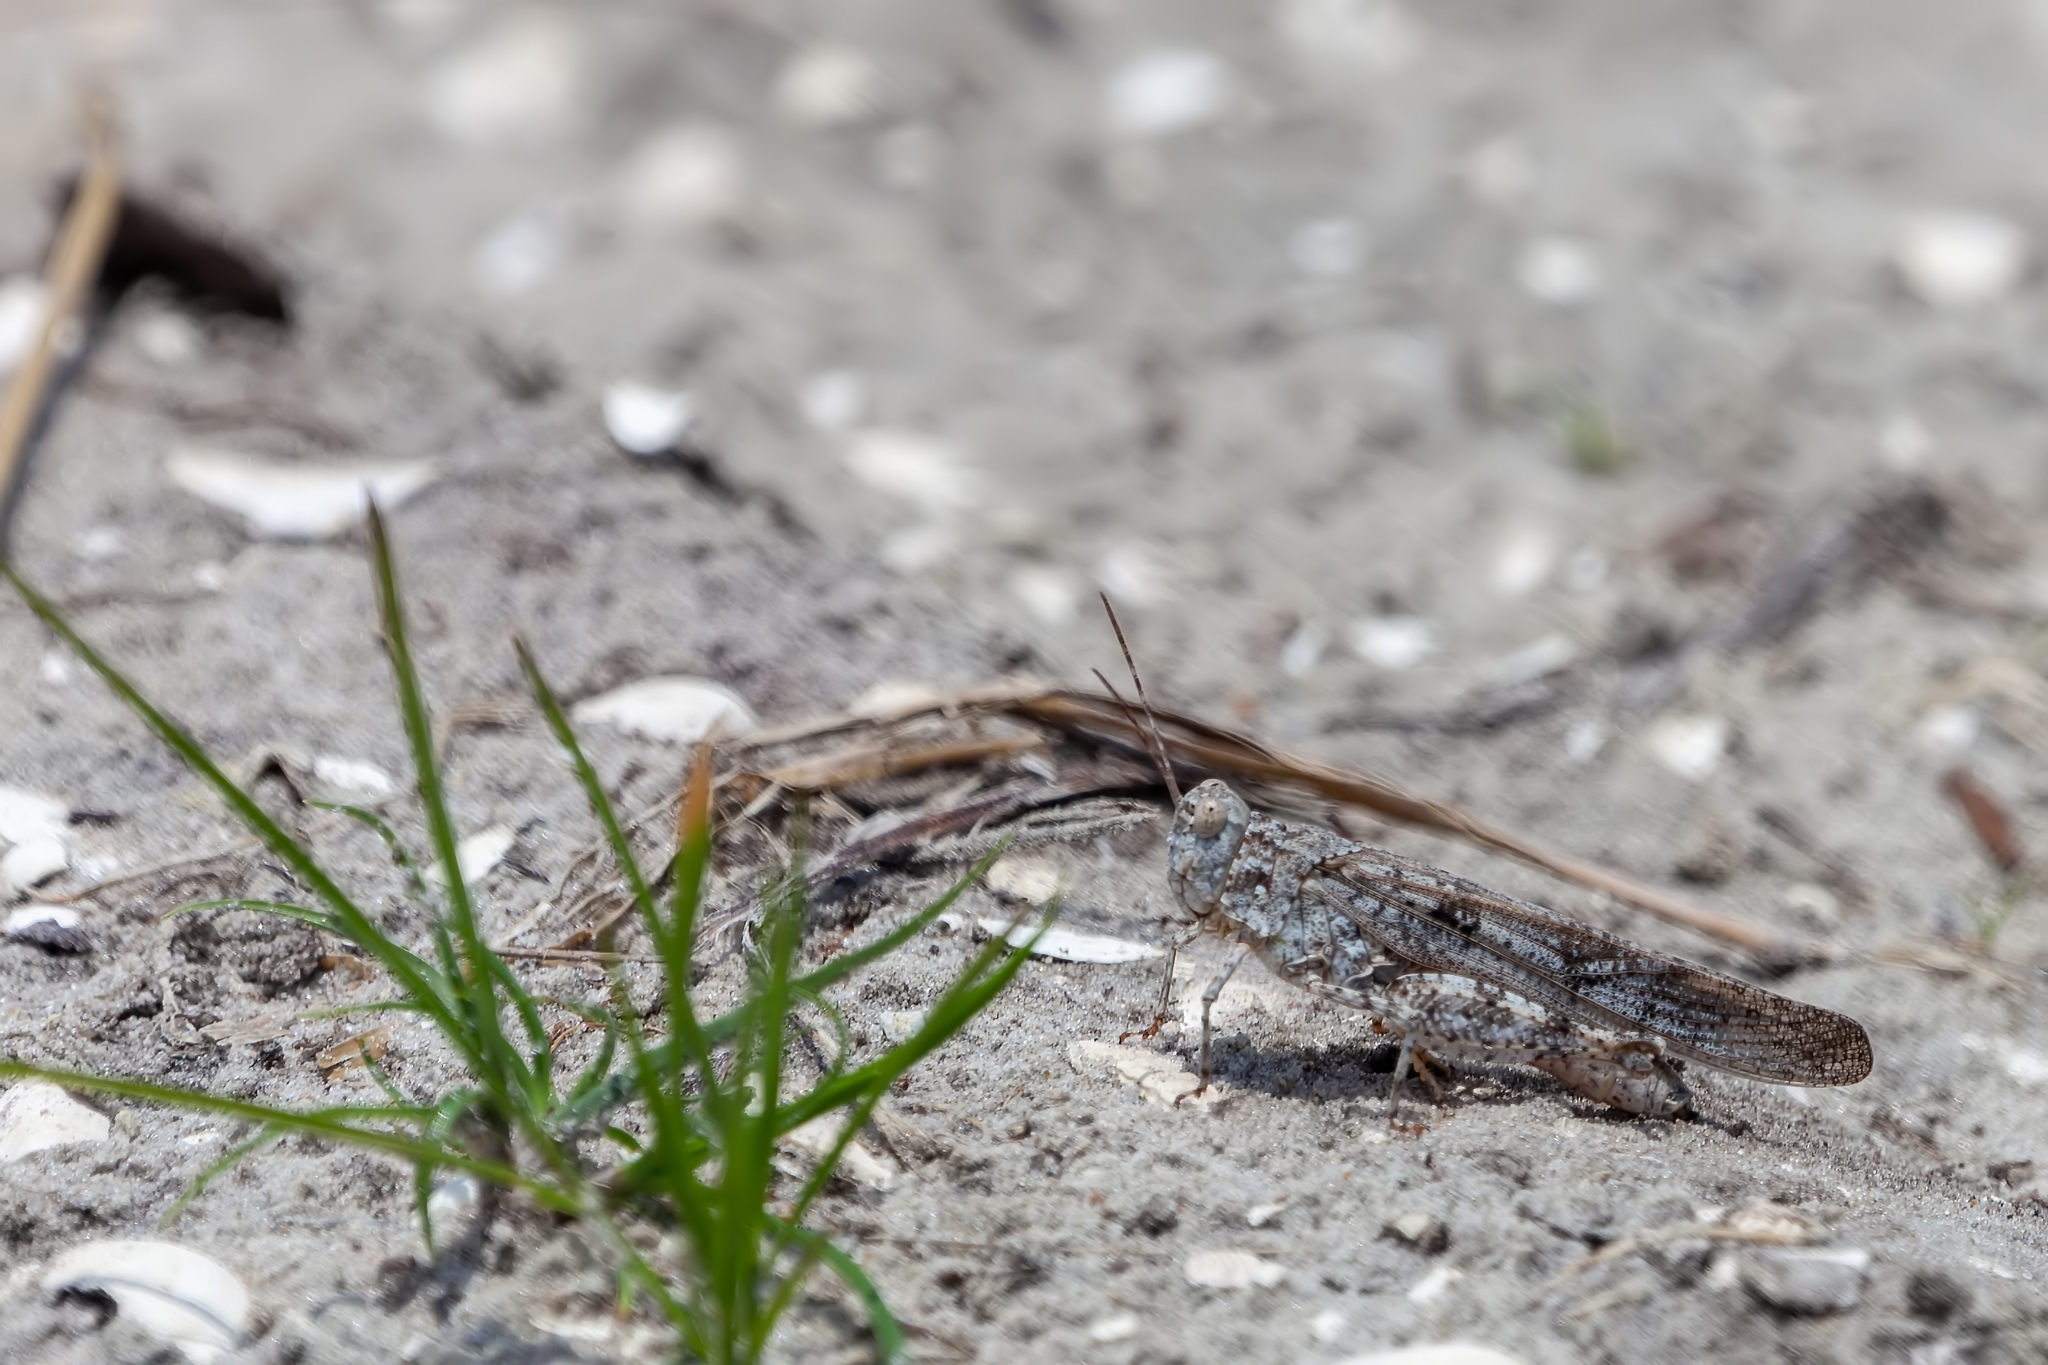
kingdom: Animalia
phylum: Arthropoda
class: Insecta
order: Orthoptera
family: Acrididae
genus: Trimerotropis
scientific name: Trimerotropis maritima
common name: Seaside locust
